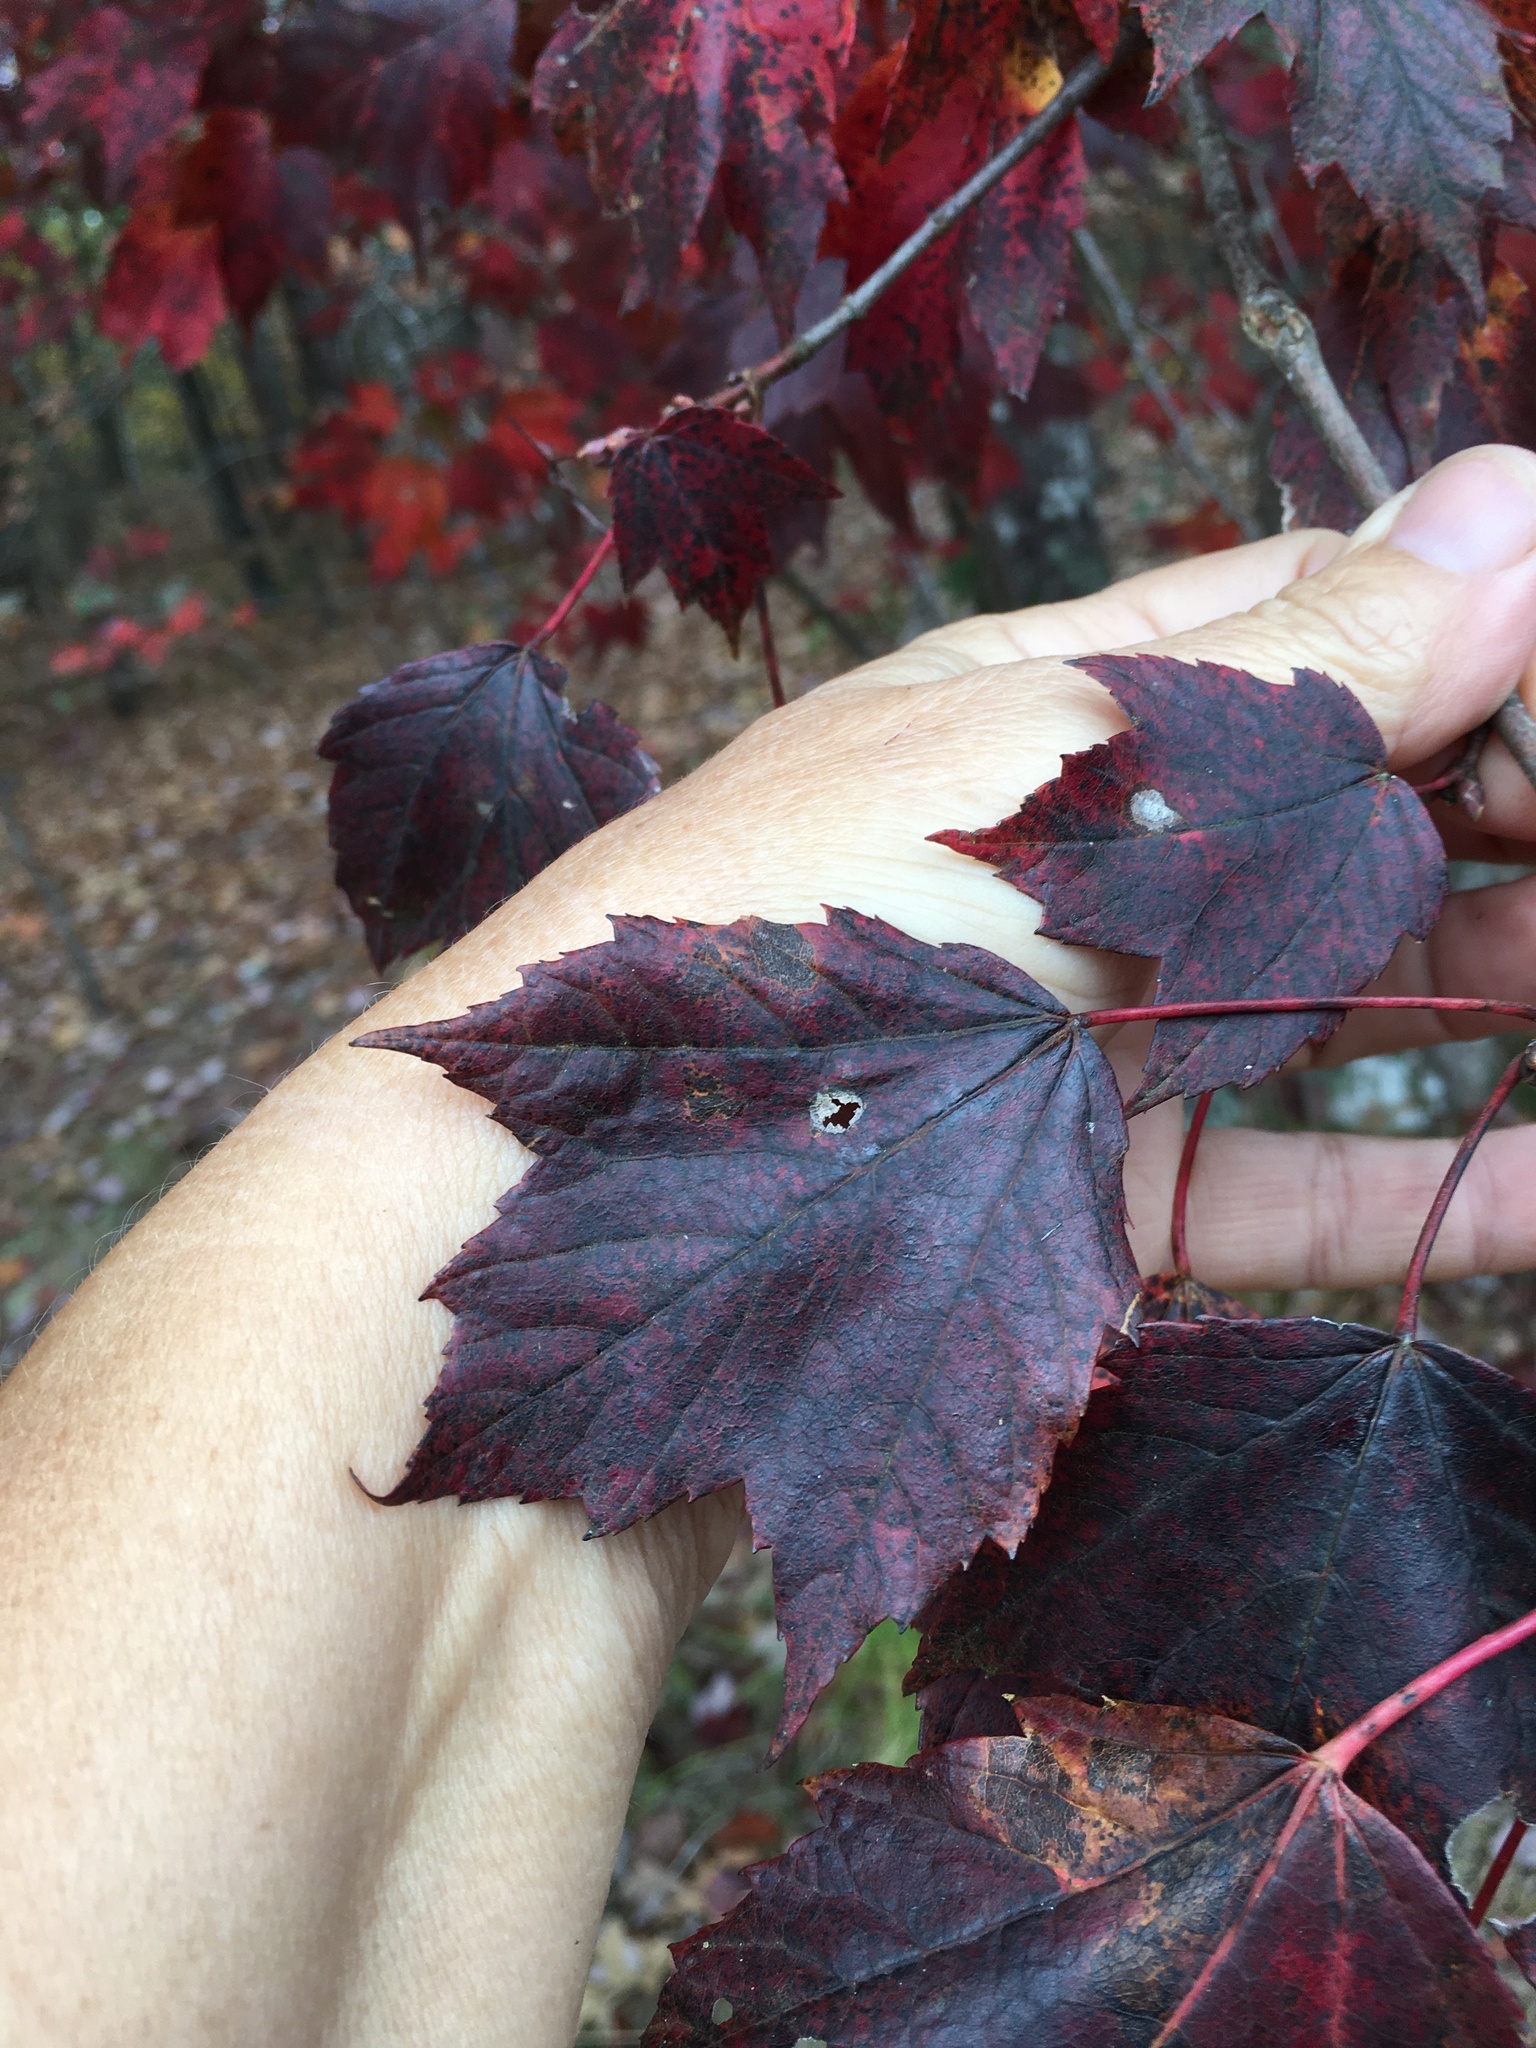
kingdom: Plantae
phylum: Tracheophyta
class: Magnoliopsida
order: Sapindales
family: Sapindaceae
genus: Acer
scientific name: Acer rubrum
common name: Red maple
